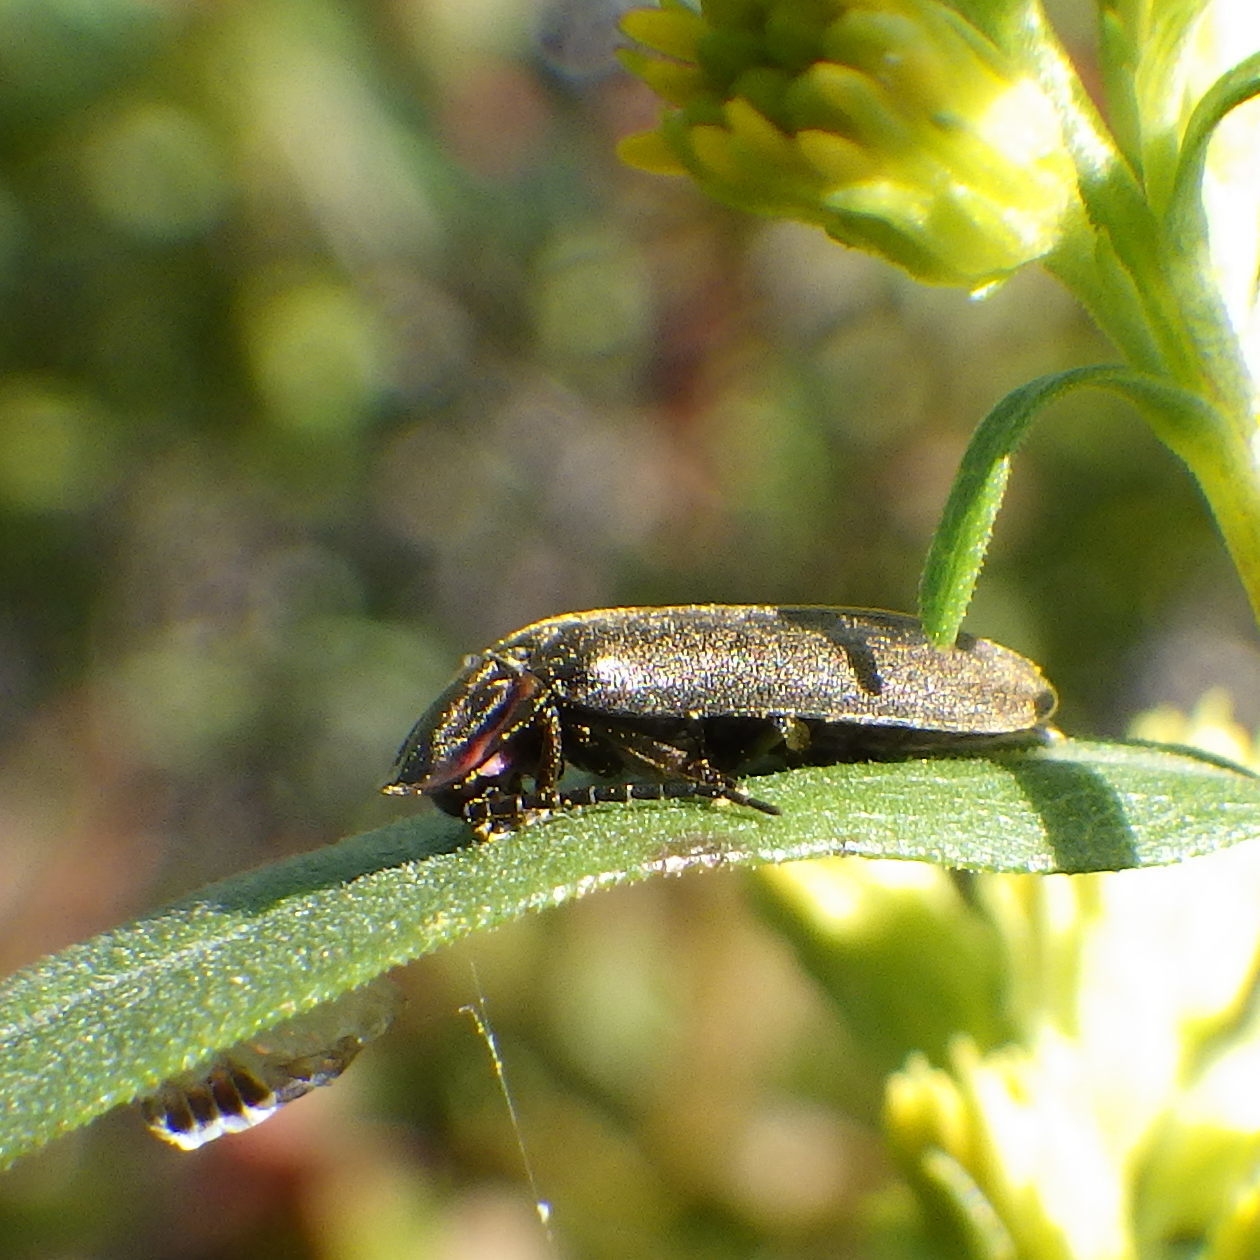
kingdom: Animalia
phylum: Arthropoda
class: Insecta
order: Coleoptera
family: Lampyridae
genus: Photinus
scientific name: Photinus corrusca
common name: Winter firefly
